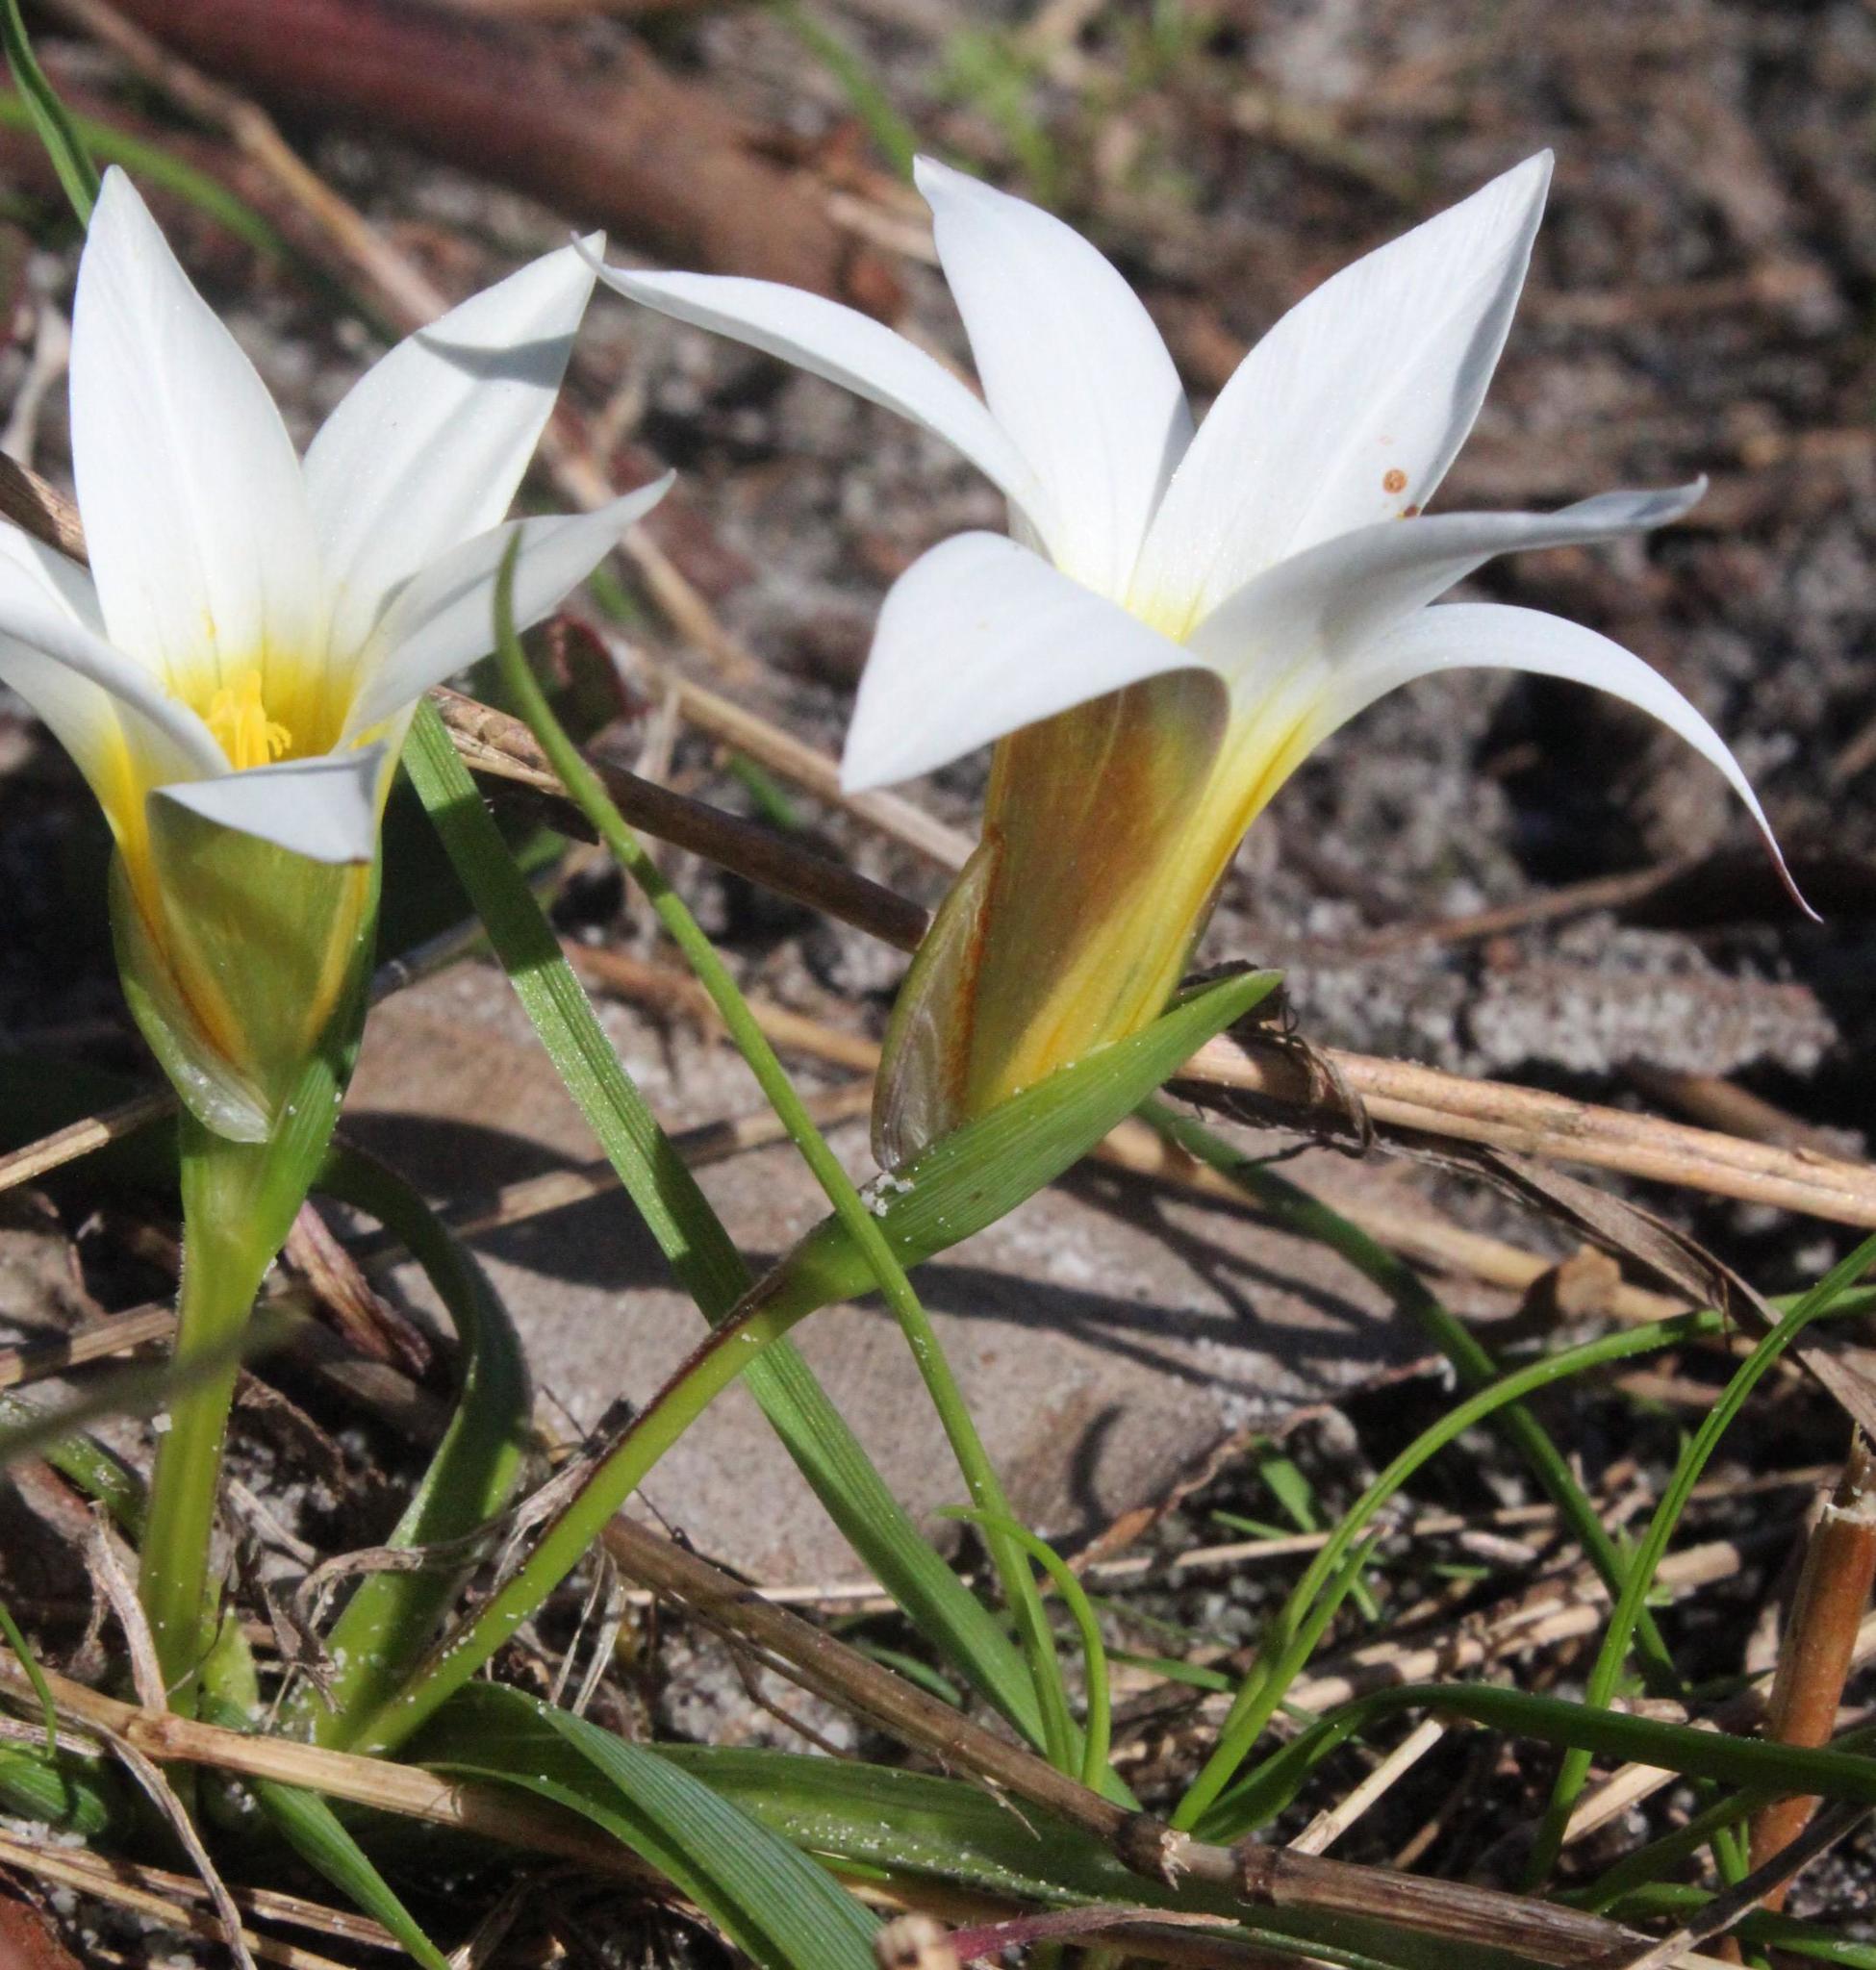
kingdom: Plantae
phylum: Tracheophyta
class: Liliopsida
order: Asparagales
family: Iridaceae
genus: Romulea
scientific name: Romulea flava
